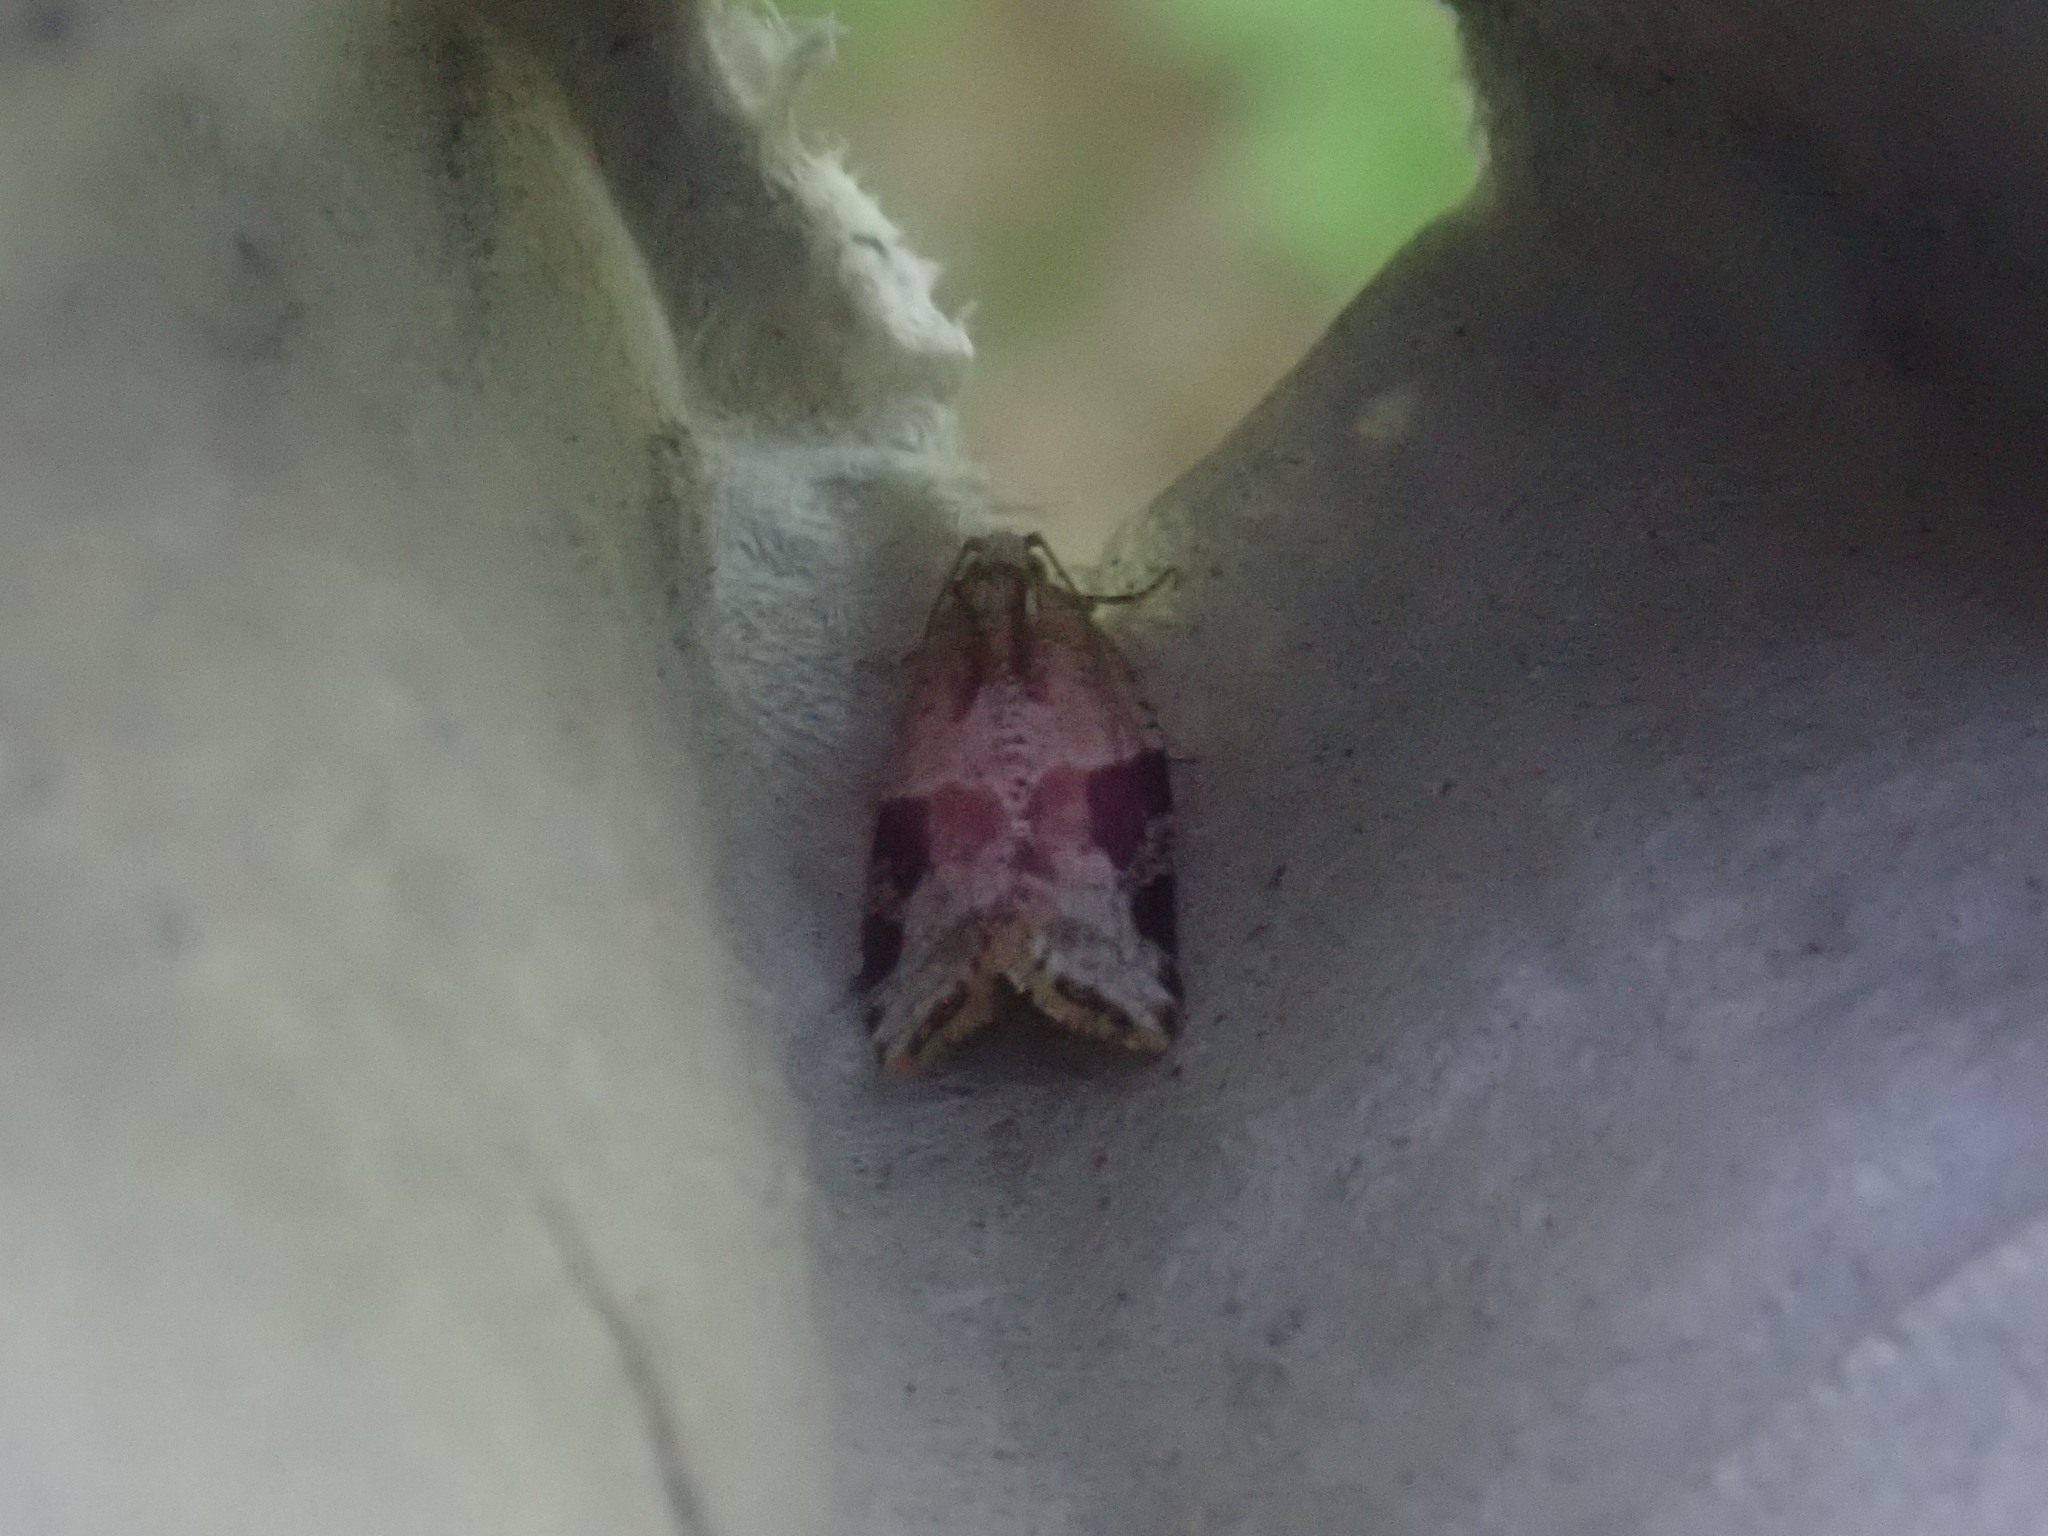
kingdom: Animalia
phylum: Arthropoda
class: Insecta
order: Lepidoptera
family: Tortricidae
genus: Argyrotaenia
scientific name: Argyrotaenia mariana
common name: Gray-banded leafroller moth
